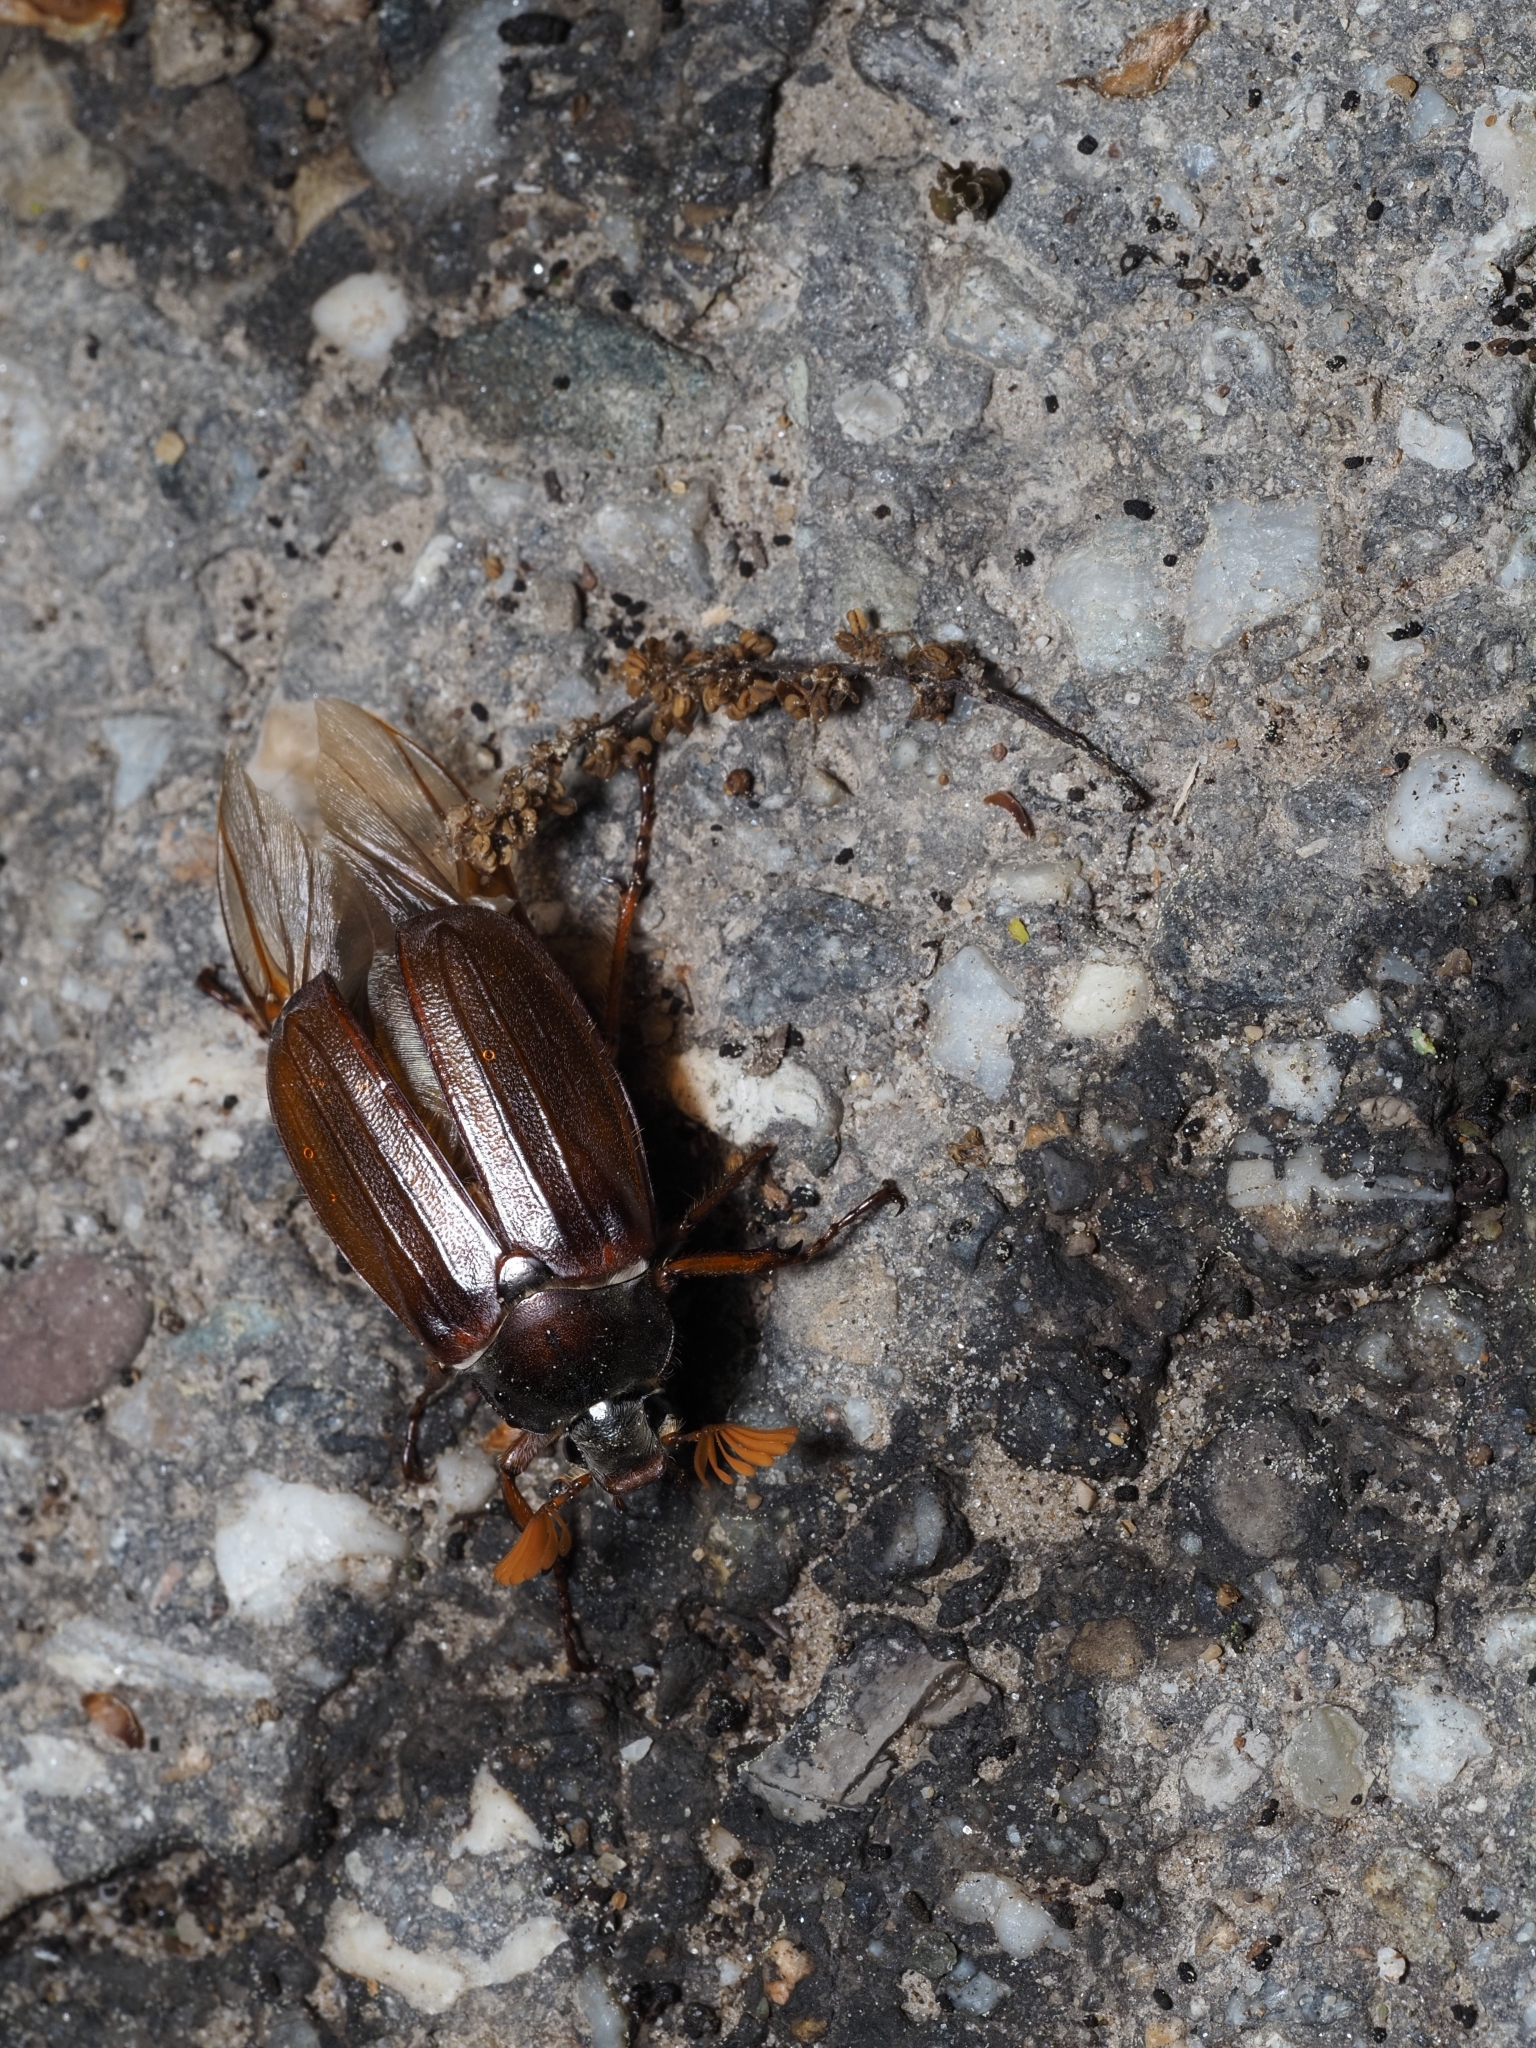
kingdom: Animalia
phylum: Arthropoda
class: Insecta
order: Coleoptera
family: Scarabaeidae
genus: Melolontha
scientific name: Melolontha melolontha
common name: Cockchafer maybeetle
